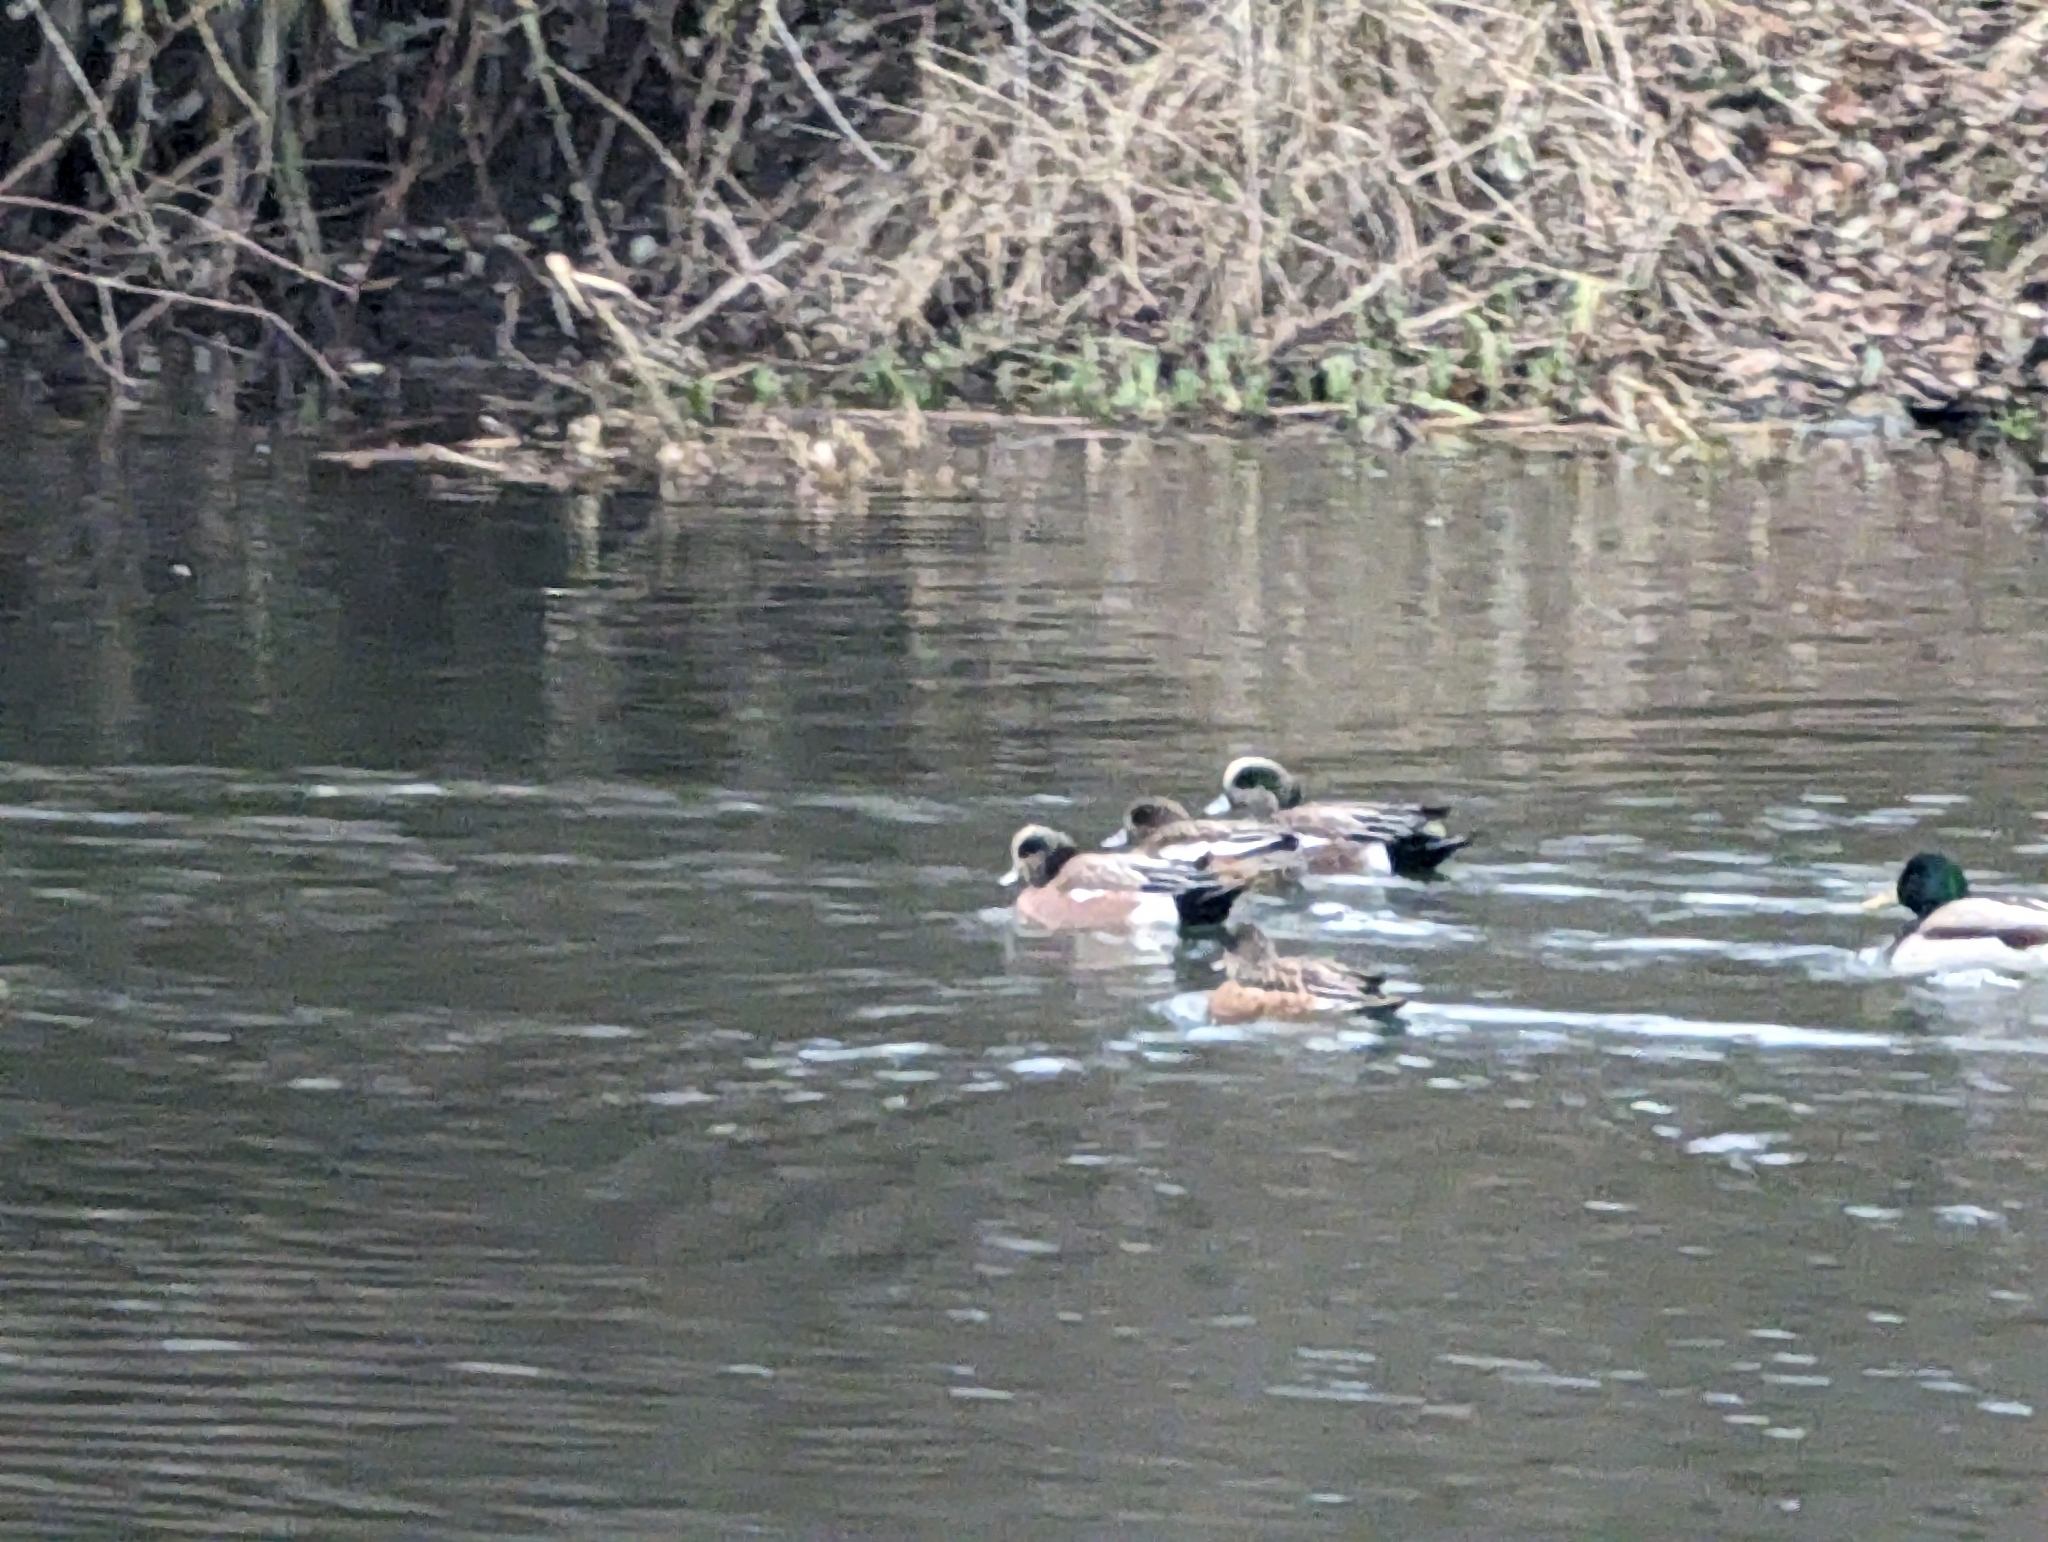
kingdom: Animalia
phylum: Chordata
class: Aves
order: Anseriformes
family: Anatidae
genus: Mareca
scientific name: Mareca americana
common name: American wigeon
